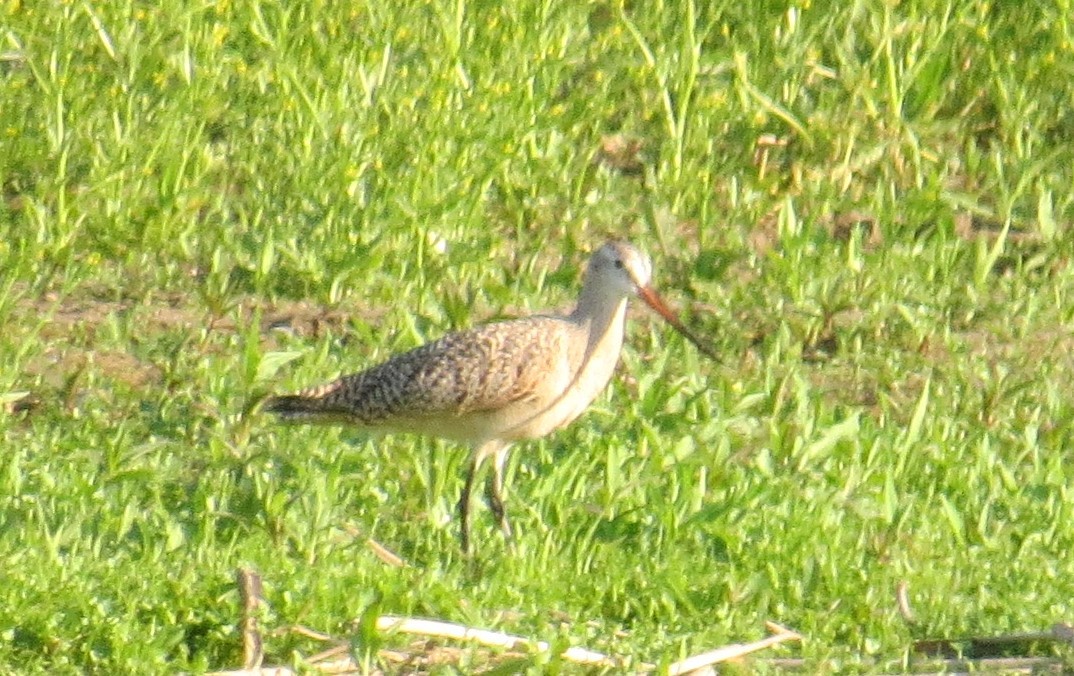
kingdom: Animalia
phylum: Chordata
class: Aves
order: Charadriiformes
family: Scolopacidae
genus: Limosa
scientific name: Limosa fedoa
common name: Marbled godwit
